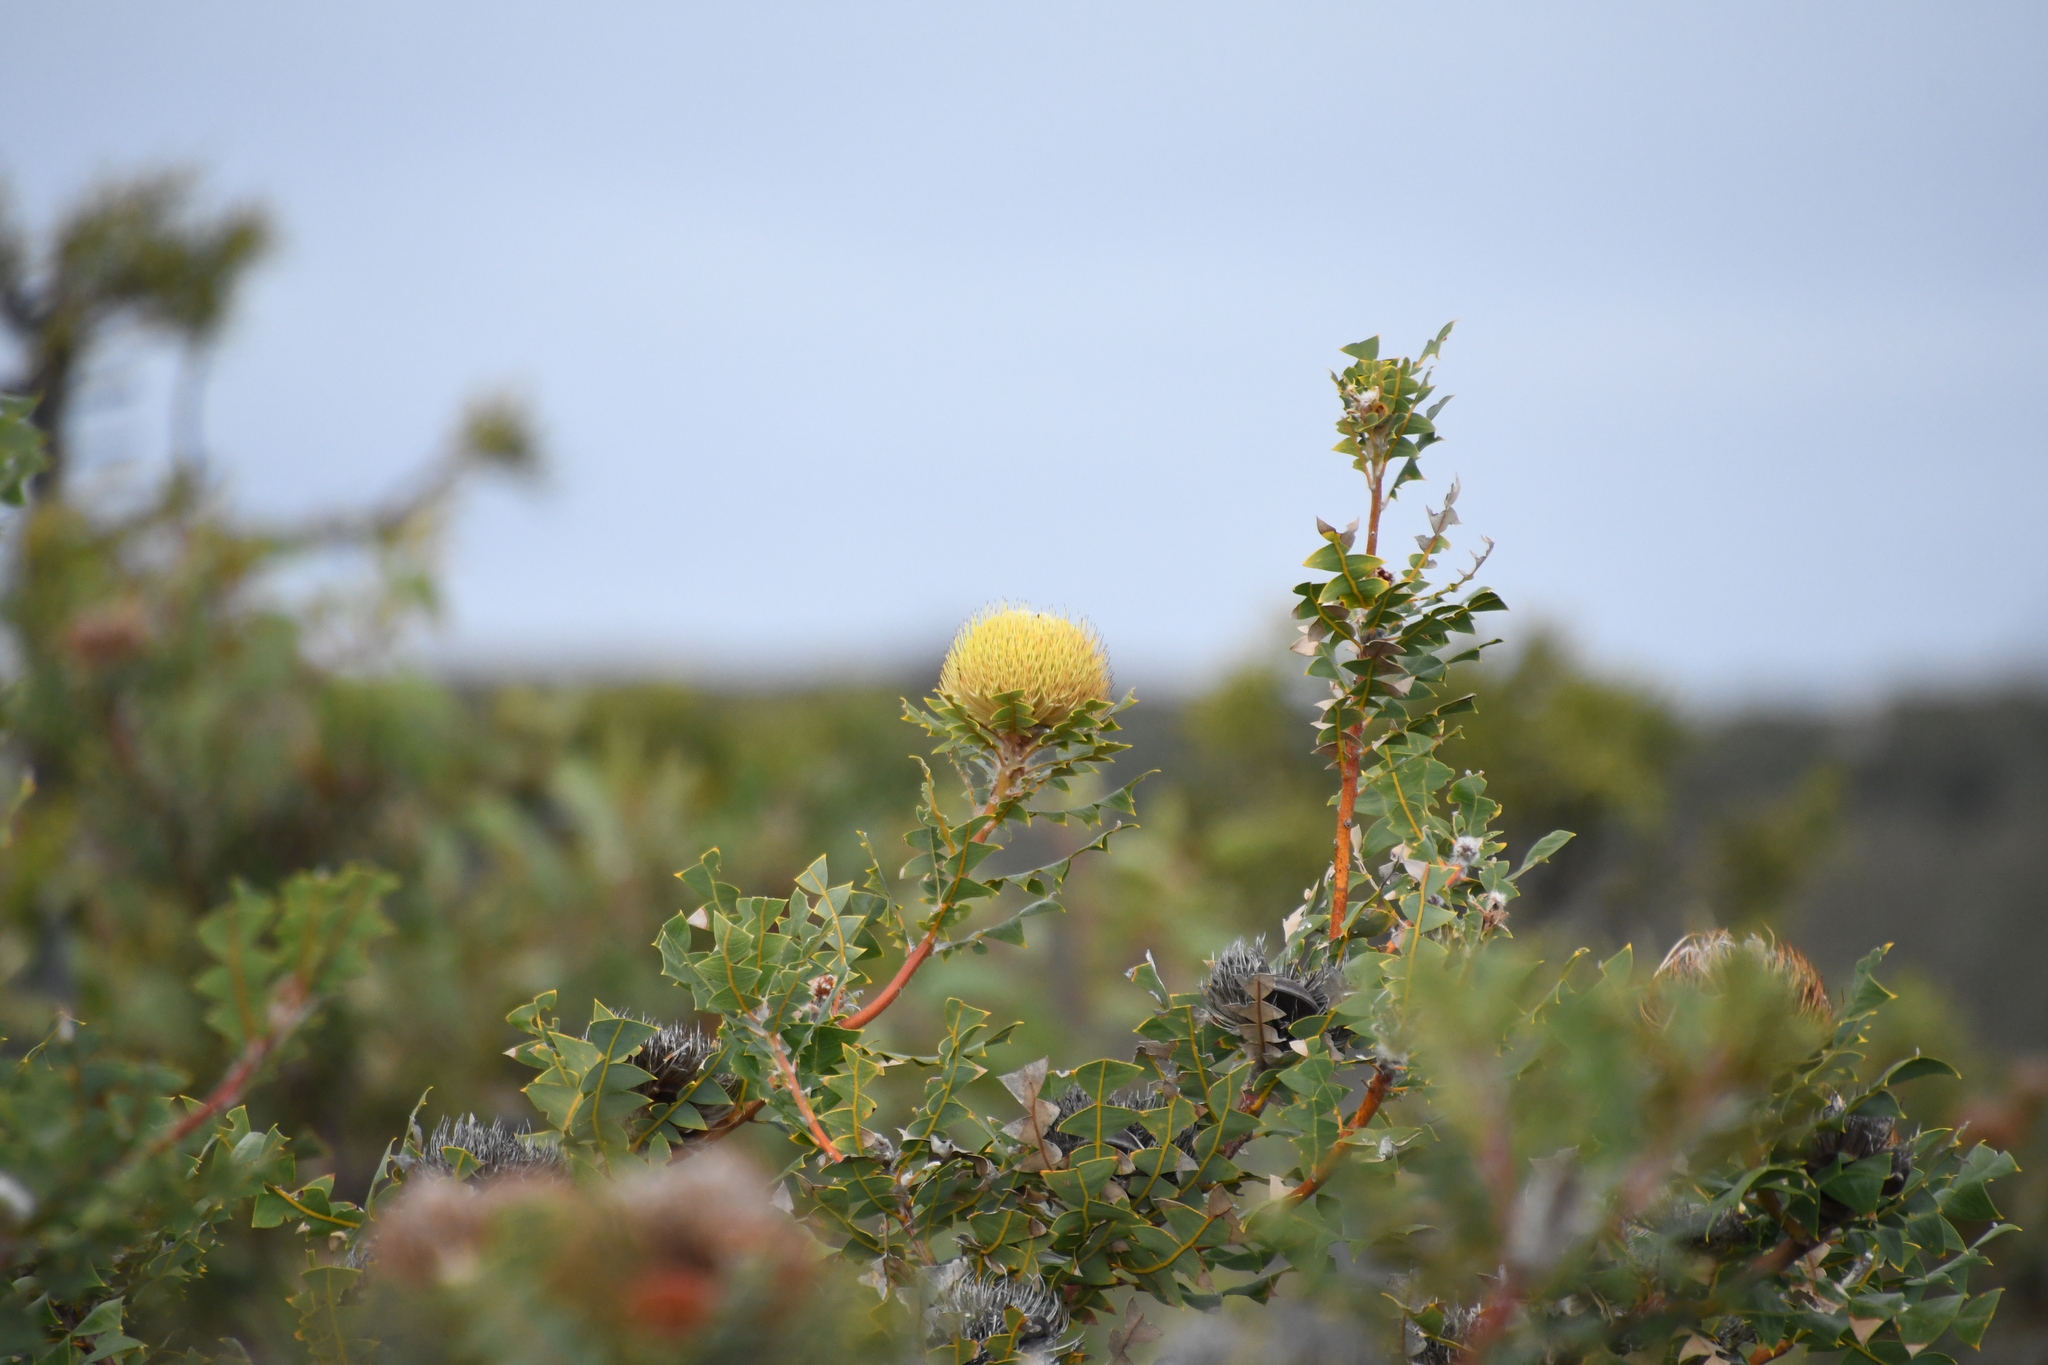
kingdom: Plantae
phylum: Tracheophyta
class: Magnoliopsida
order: Proteales
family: Proteaceae
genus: Banksia
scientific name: Banksia baxteri
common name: Bird's-nest banksia
